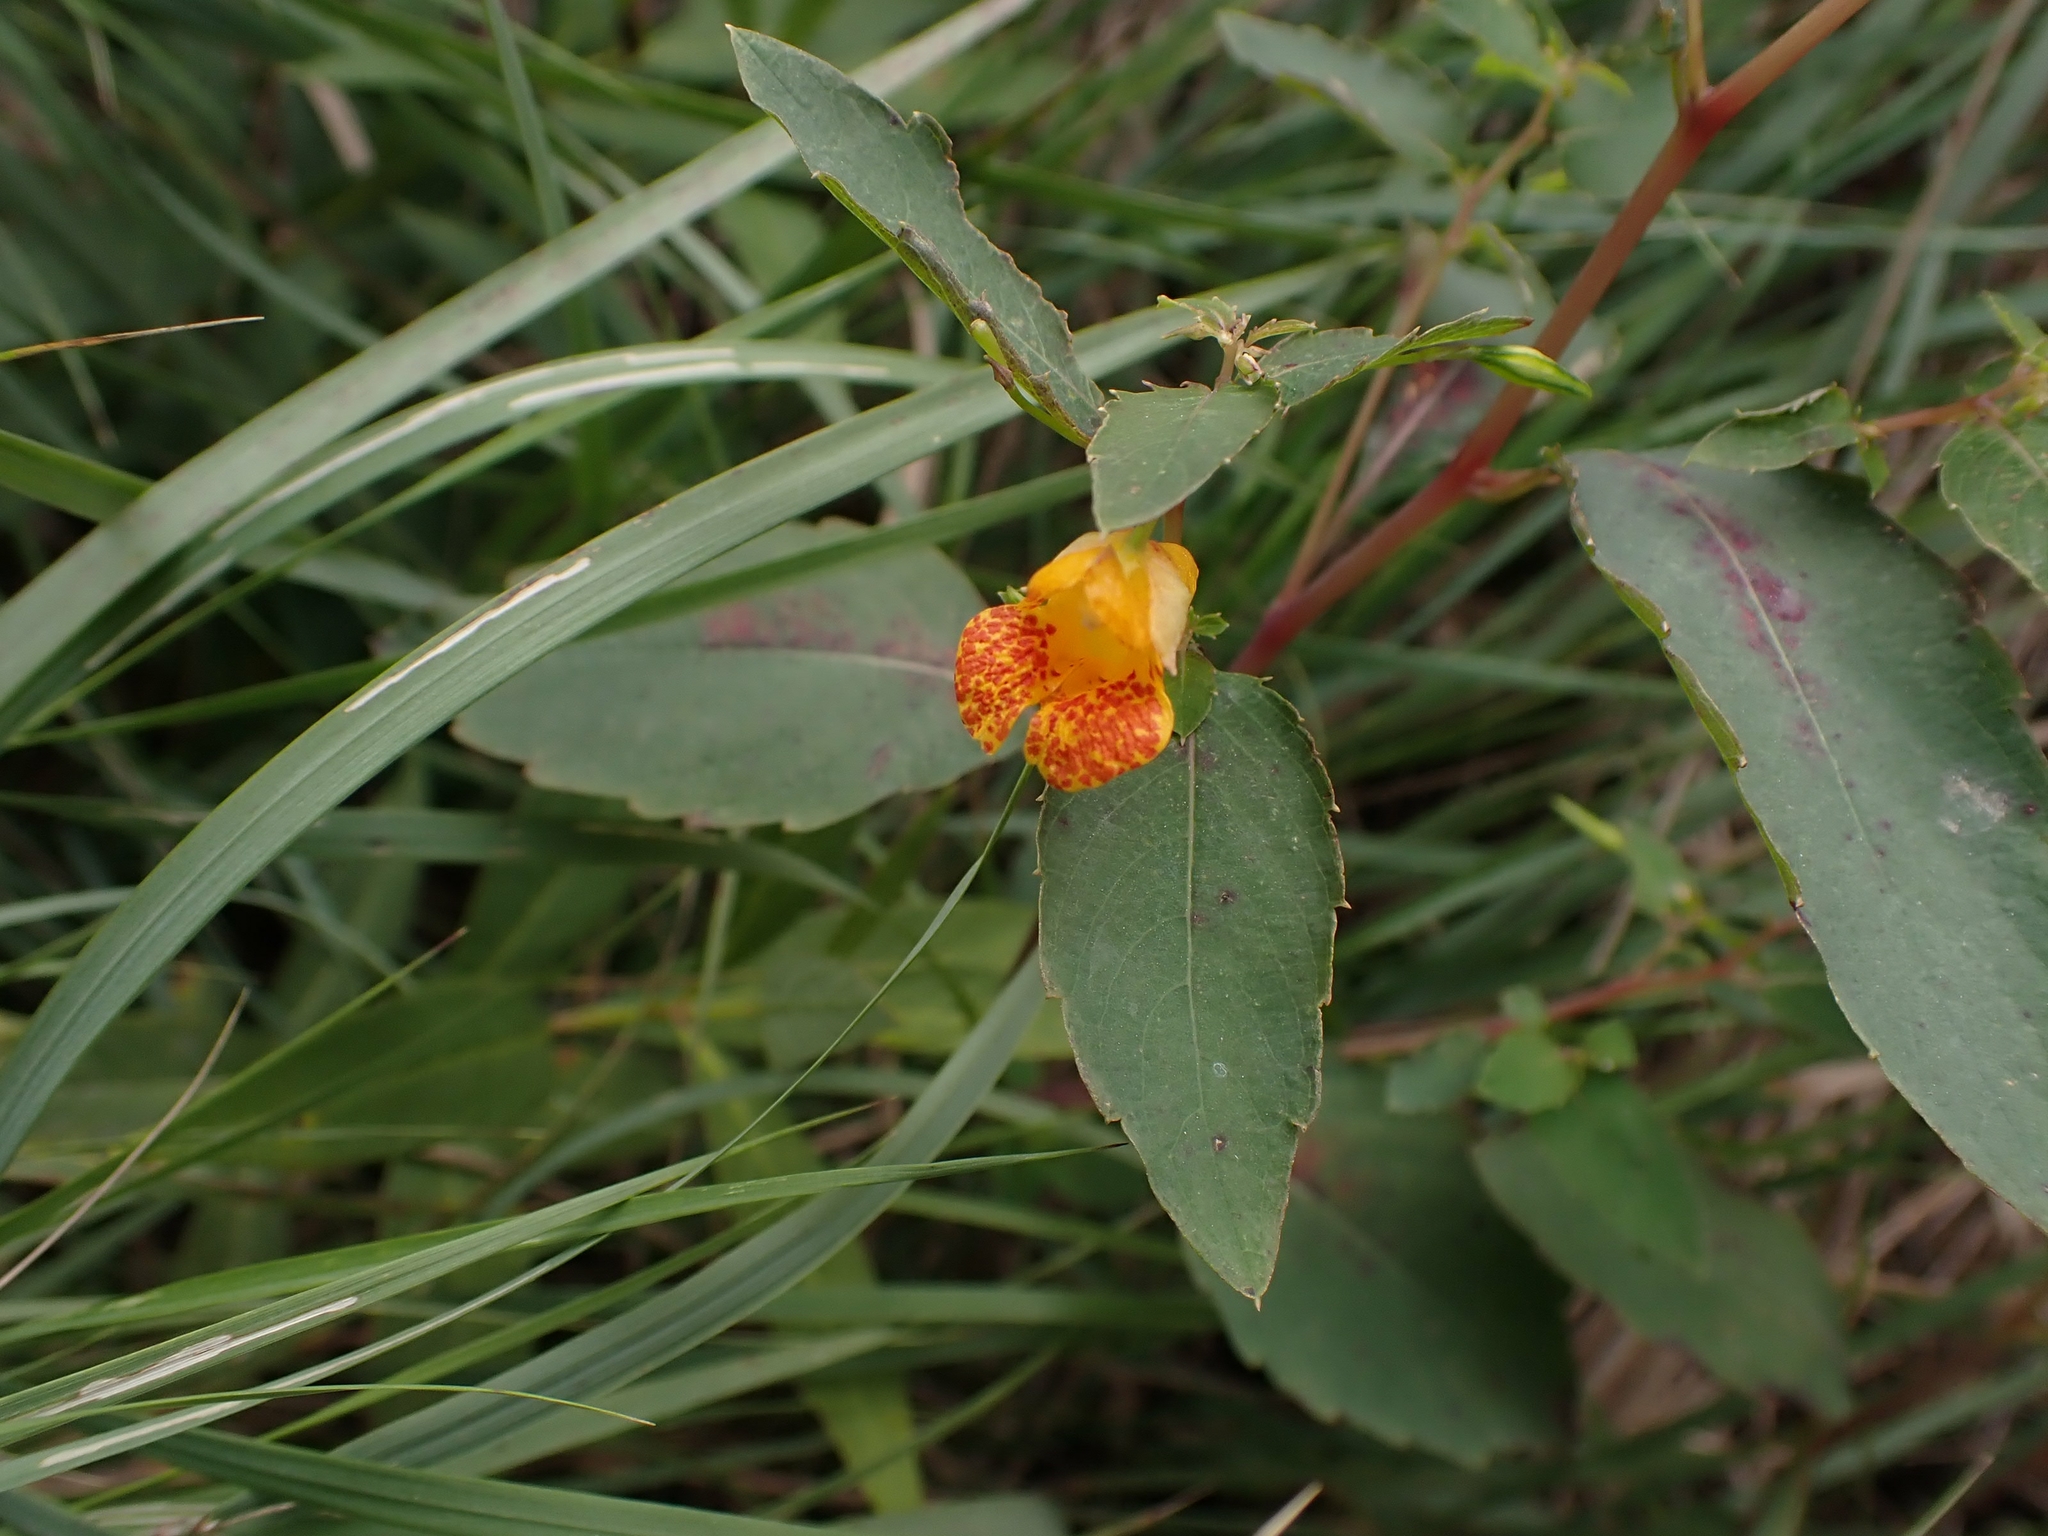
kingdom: Plantae
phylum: Tracheophyta
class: Magnoliopsida
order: Ericales
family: Balsaminaceae
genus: Impatiens
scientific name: Impatiens capensis
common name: Orange balsam
